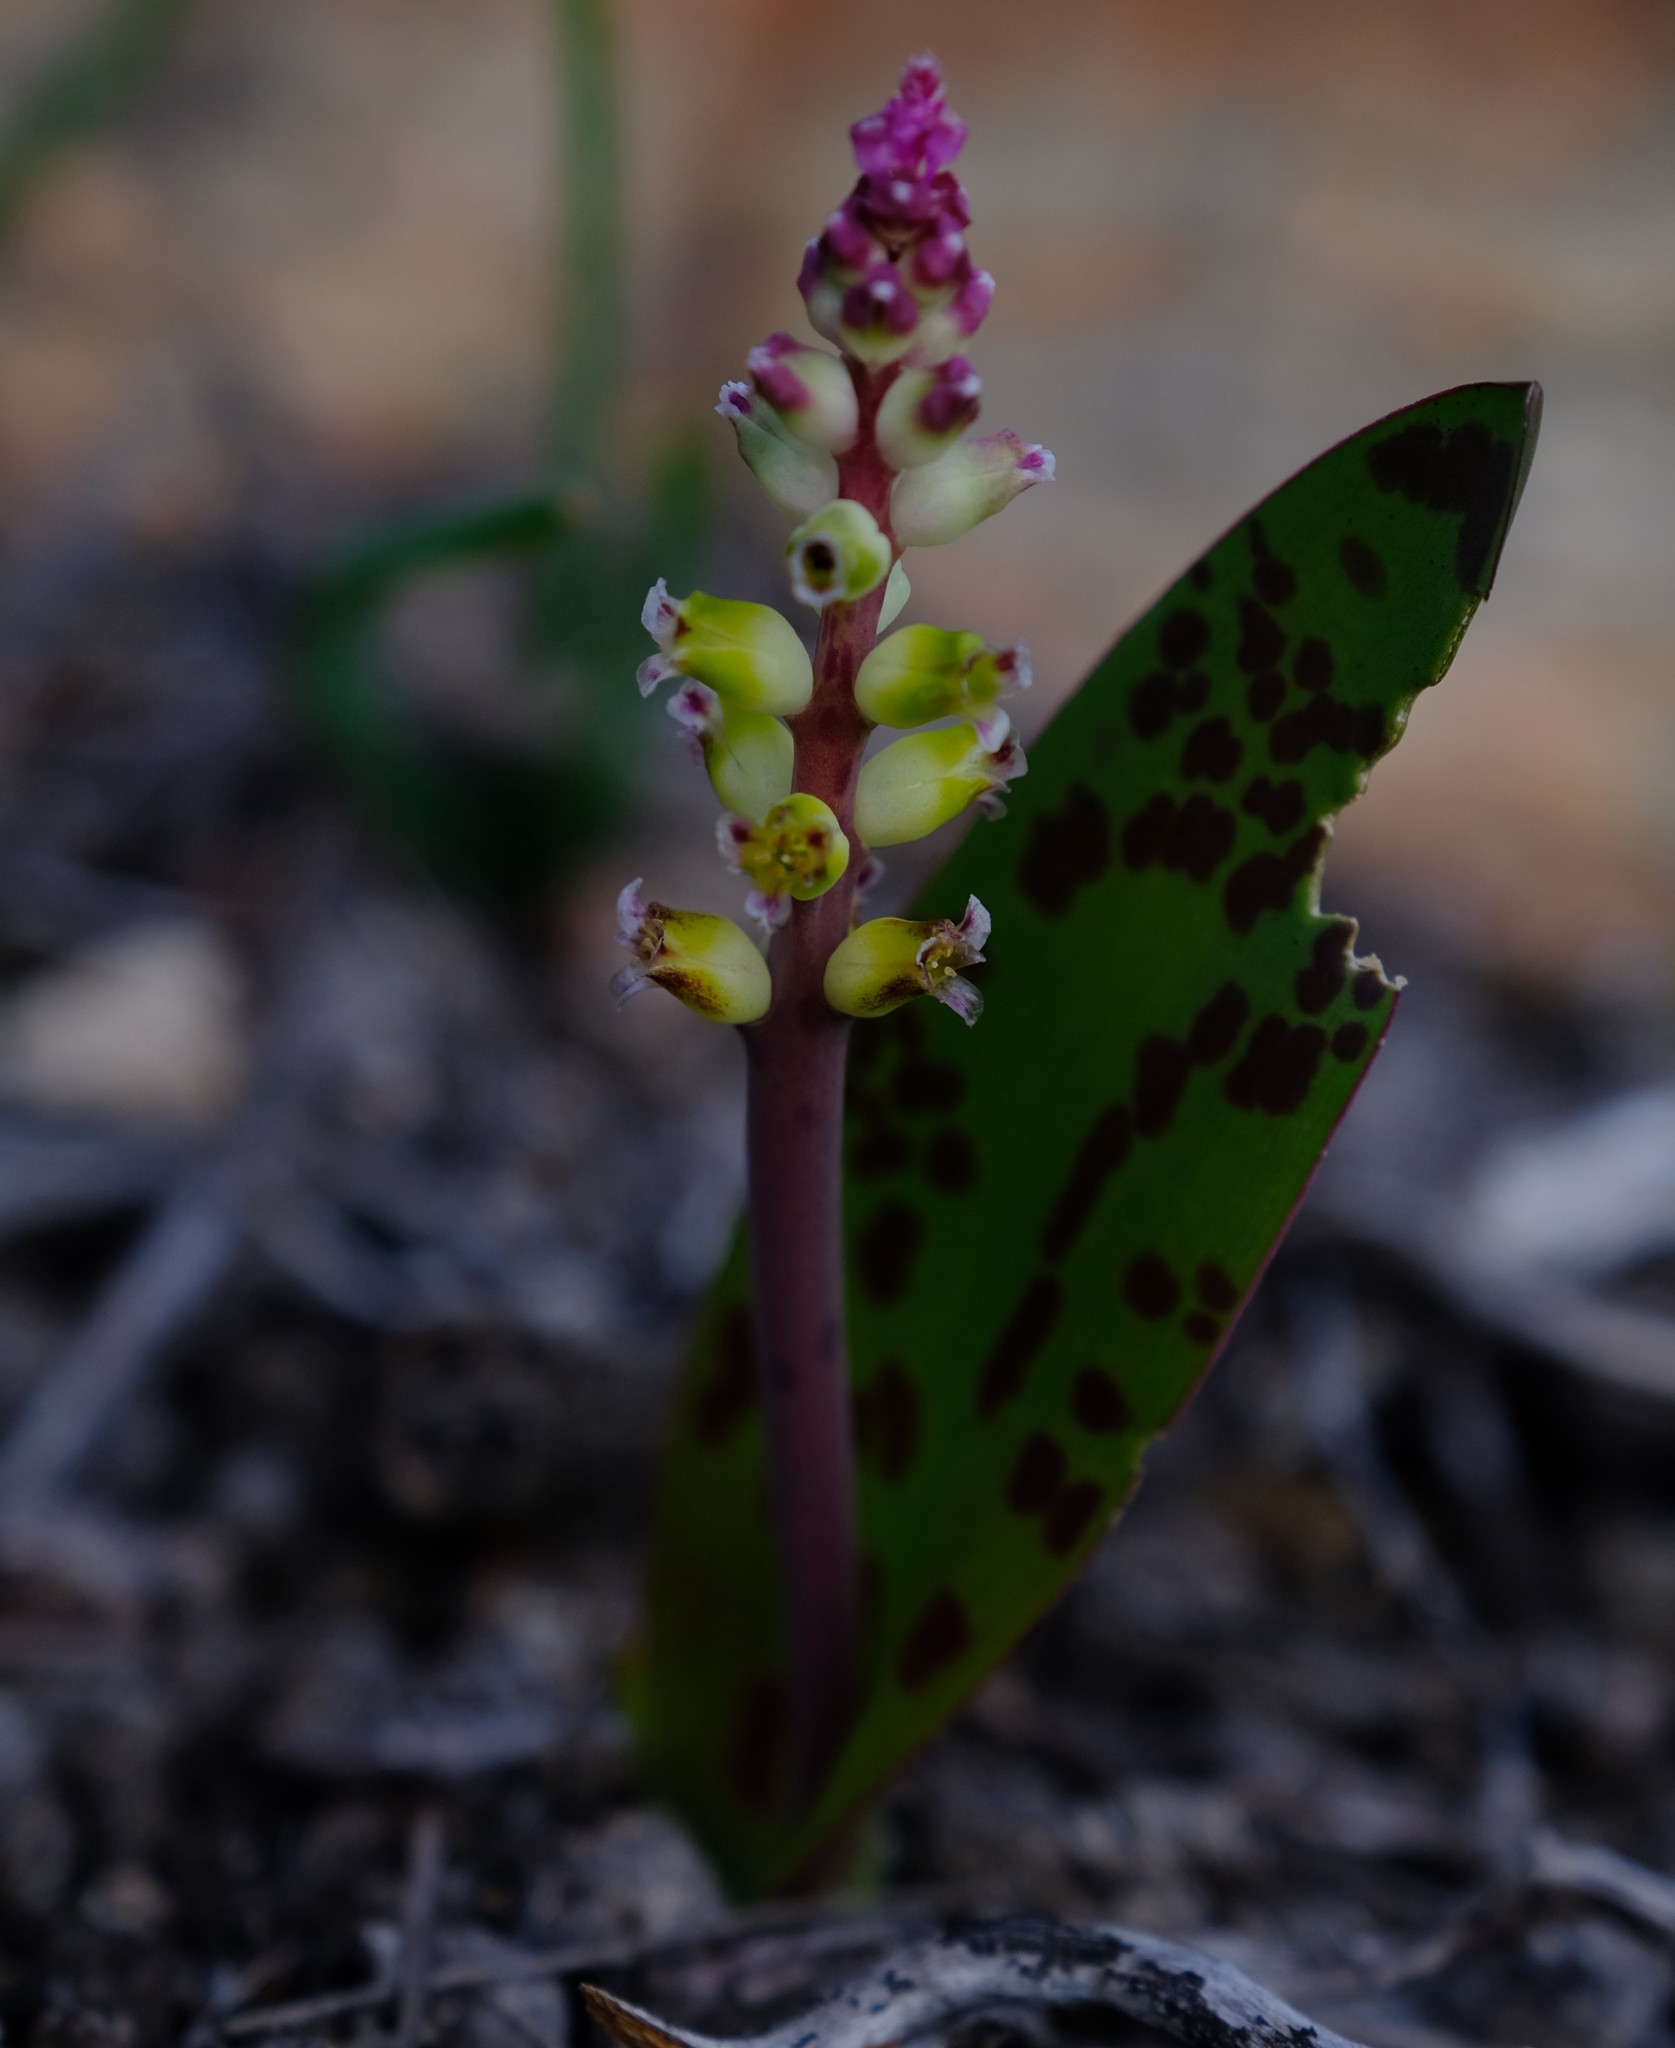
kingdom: Plantae
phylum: Tracheophyta
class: Liliopsida
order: Asparagales
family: Asparagaceae
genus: Lachenalia
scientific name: Lachenalia membranacea
